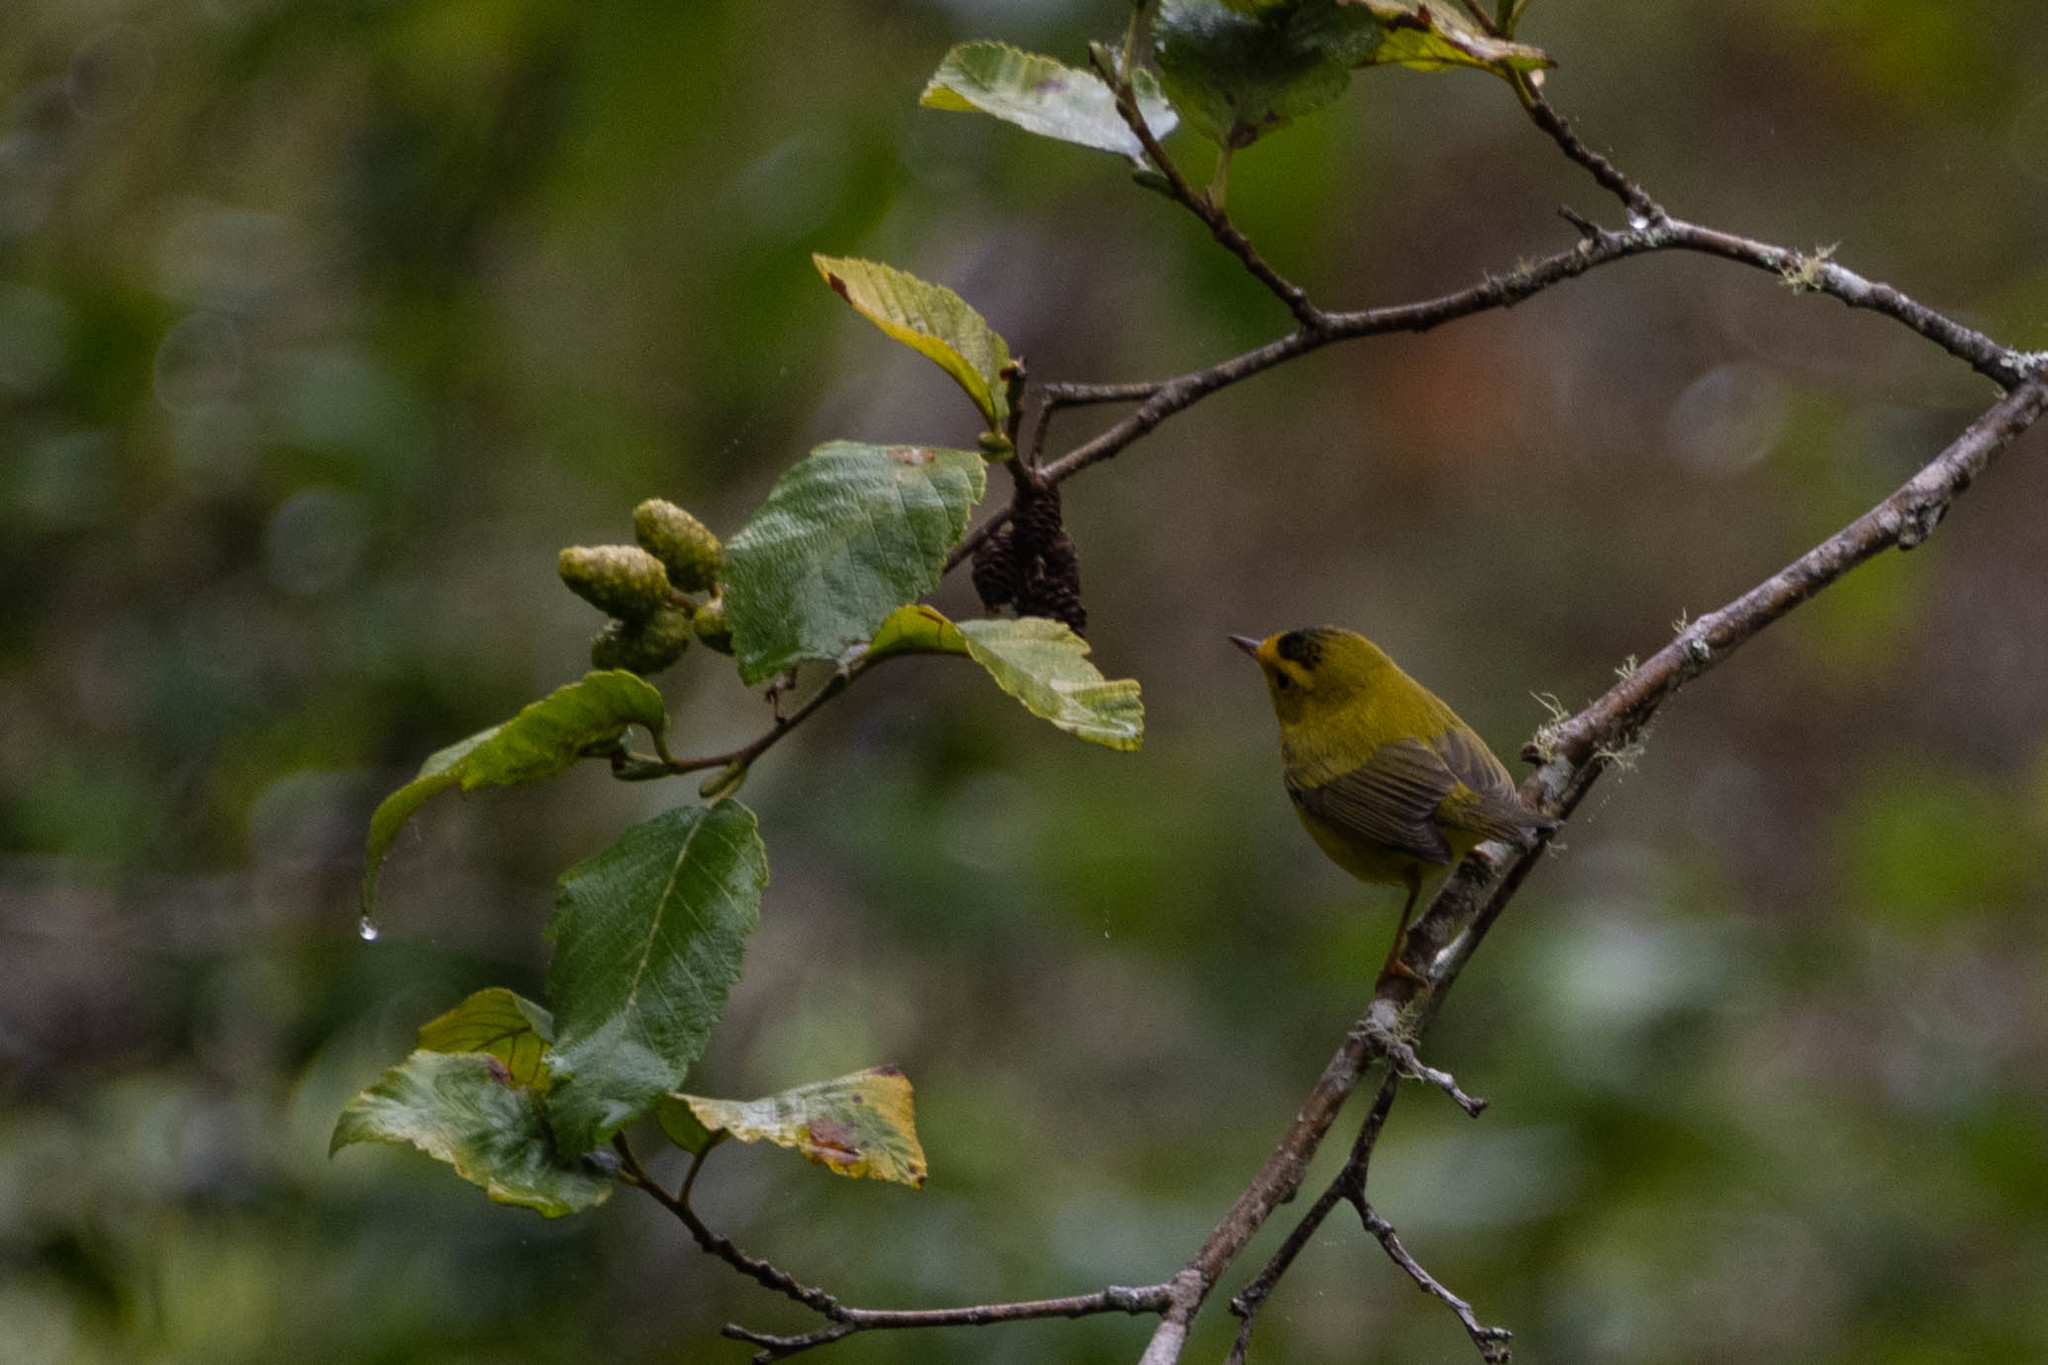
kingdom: Animalia
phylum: Chordata
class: Aves
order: Passeriformes
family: Parulidae
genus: Cardellina
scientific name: Cardellina pusilla
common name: Wilson's warbler
